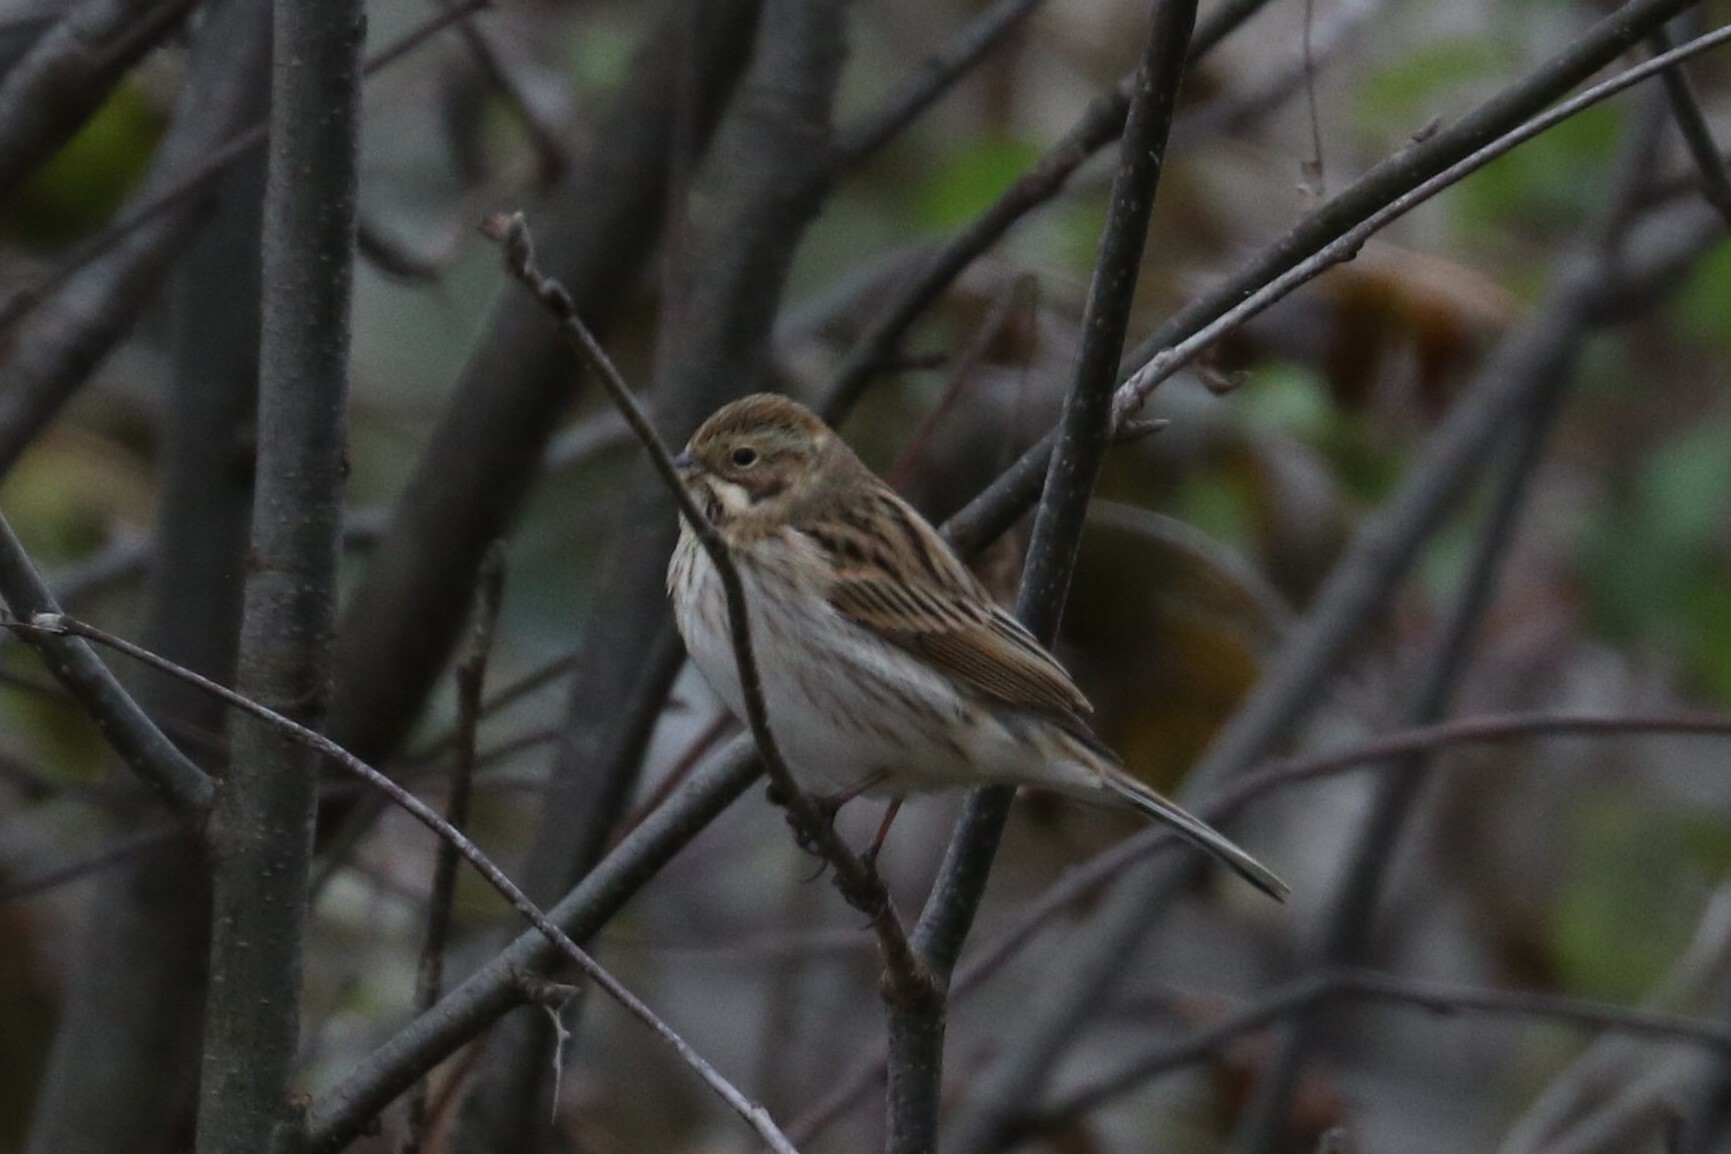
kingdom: Animalia
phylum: Chordata
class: Aves
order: Passeriformes
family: Emberizidae
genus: Emberiza
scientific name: Emberiza schoeniclus
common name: Reed bunting
